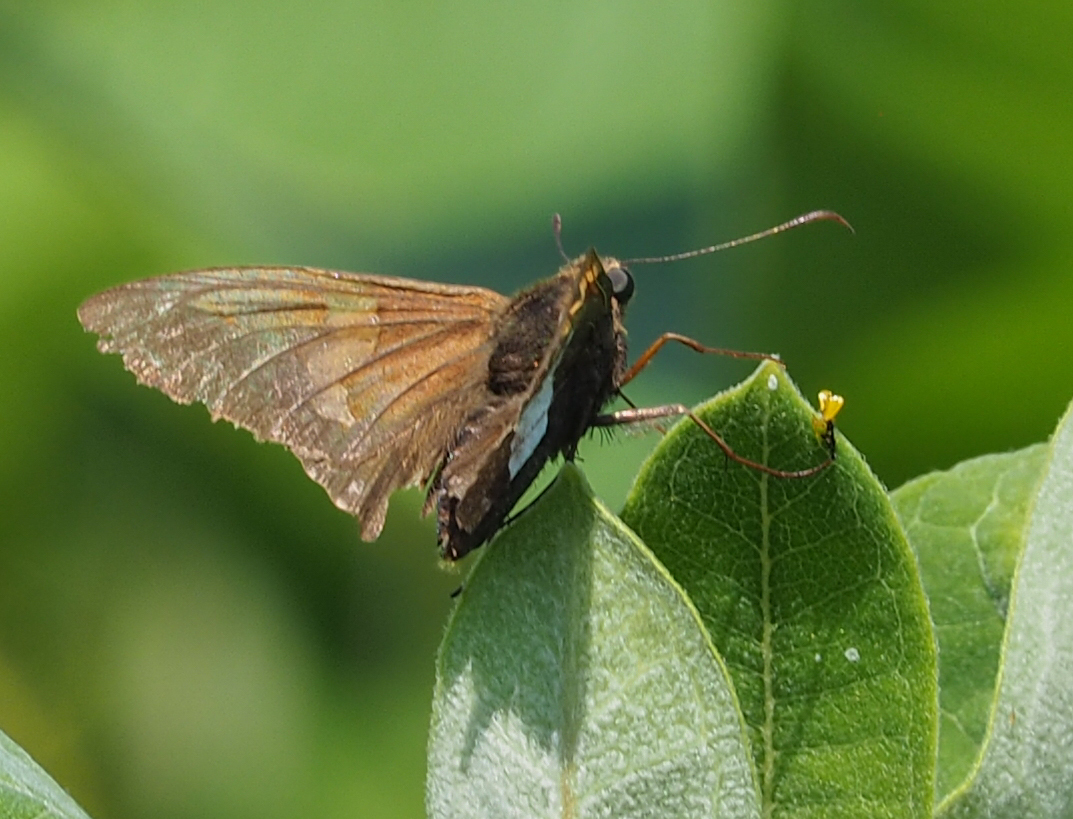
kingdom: Animalia
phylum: Arthropoda
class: Insecta
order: Lepidoptera
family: Hesperiidae
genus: Epargyreus
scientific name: Epargyreus clarus
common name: Silver-spotted skipper
